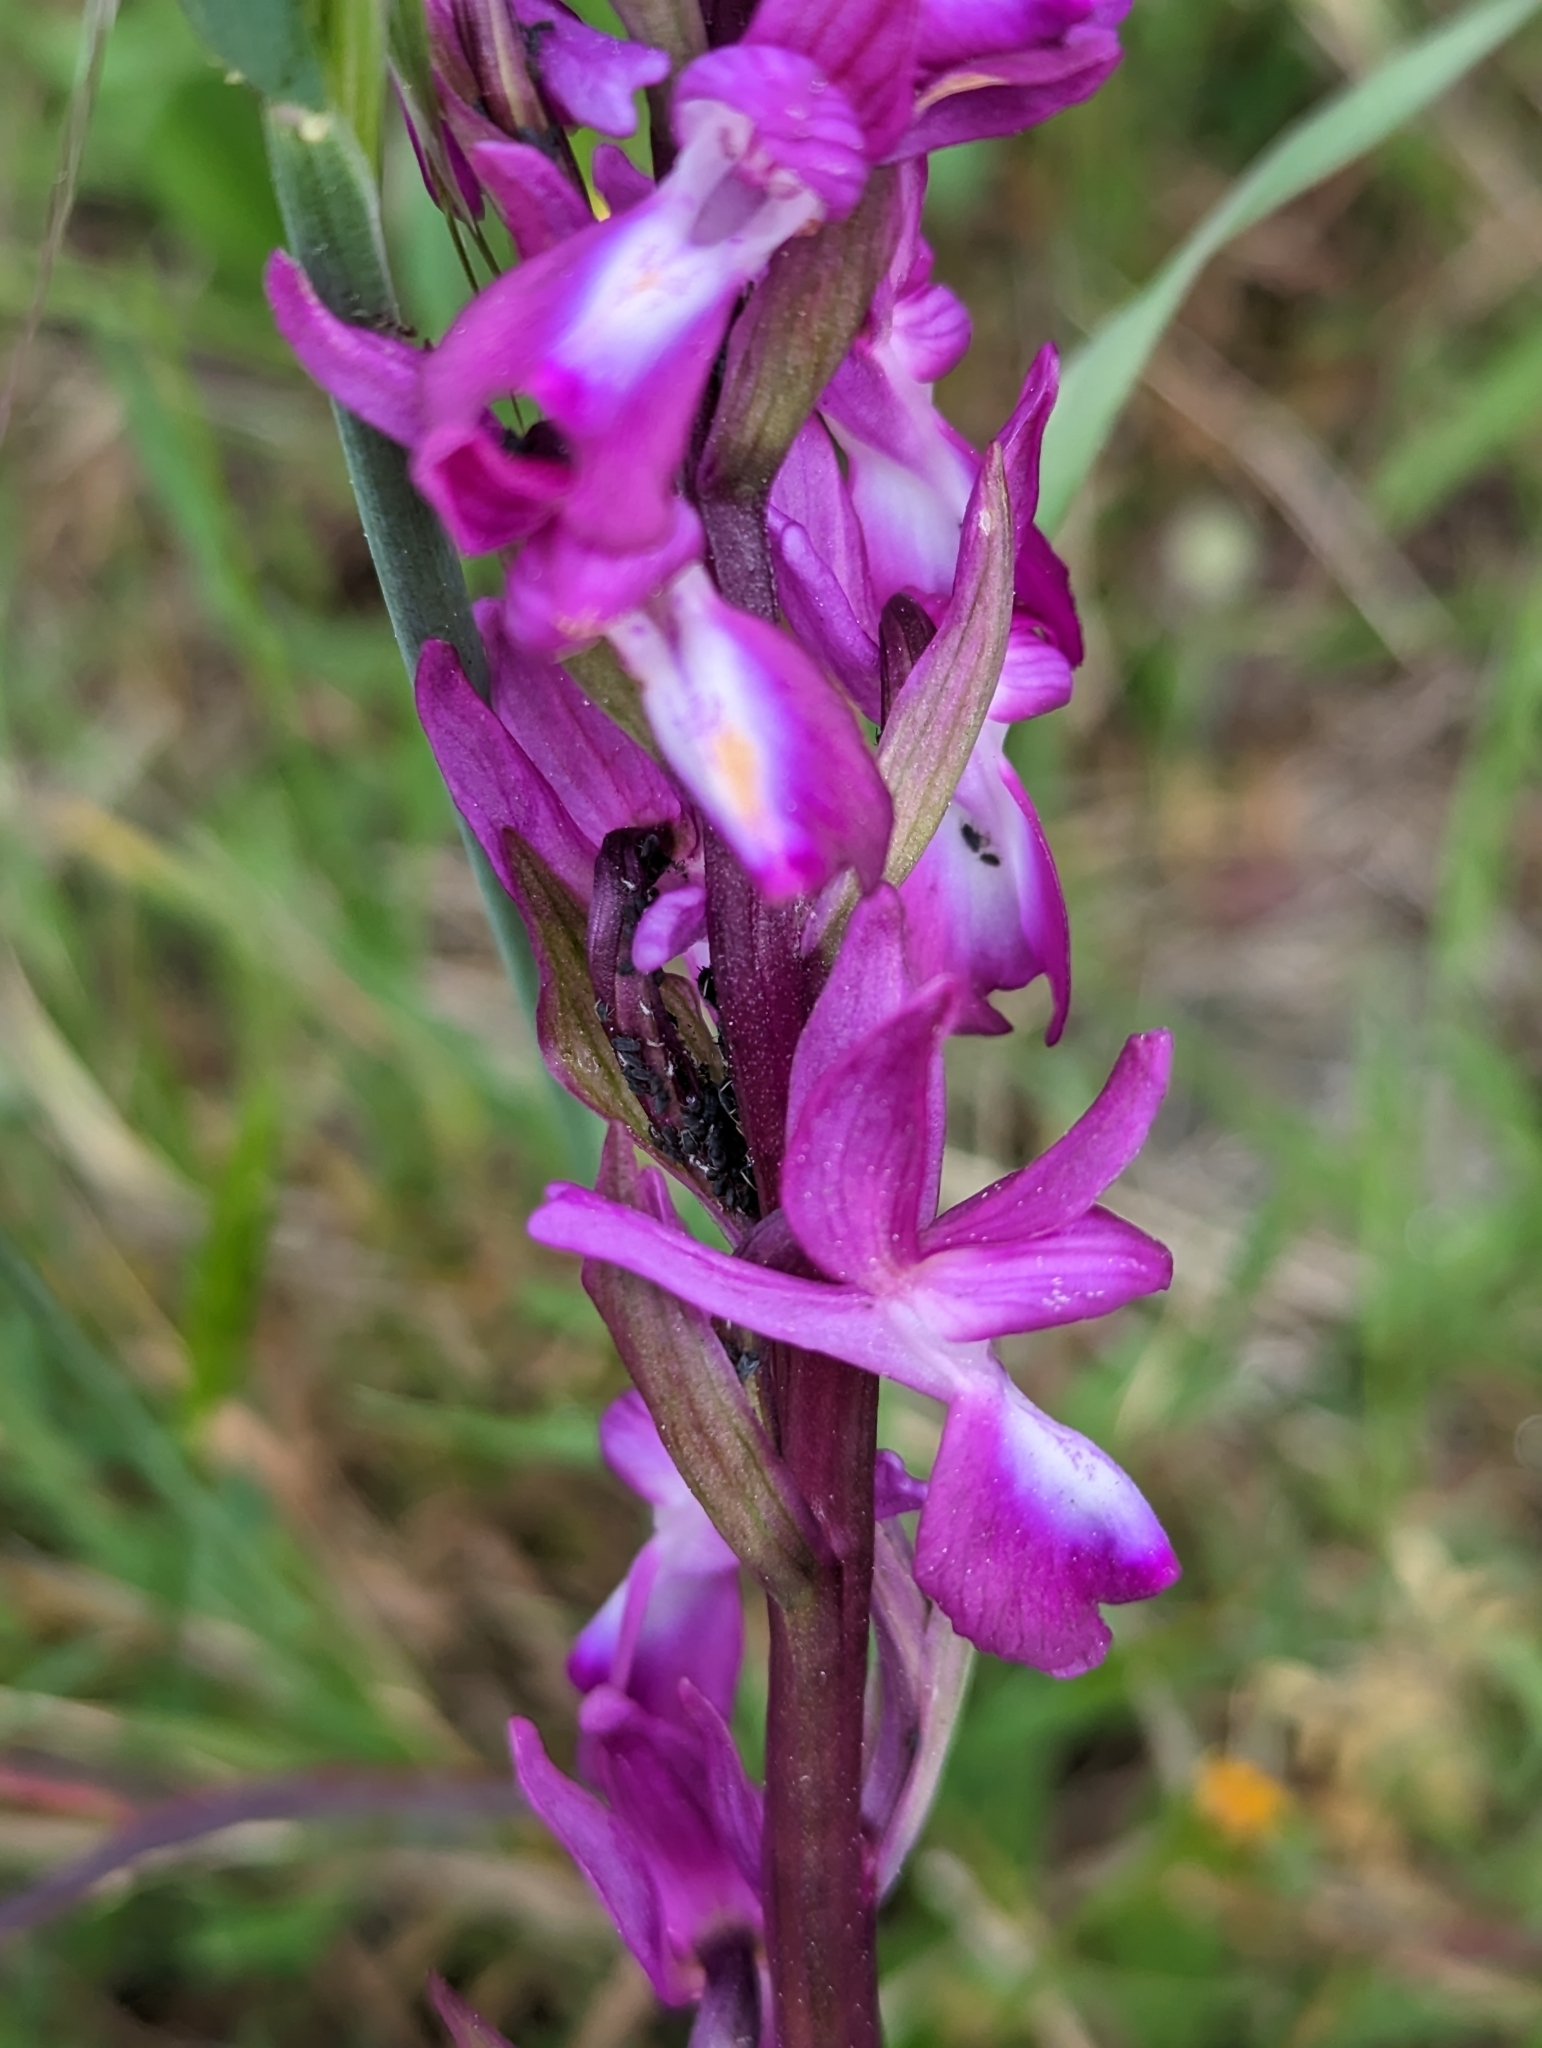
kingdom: Plantae
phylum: Tracheophyta
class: Liliopsida
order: Asparagales
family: Orchidaceae
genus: Anacamptis
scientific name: Anacamptis laxiflora
